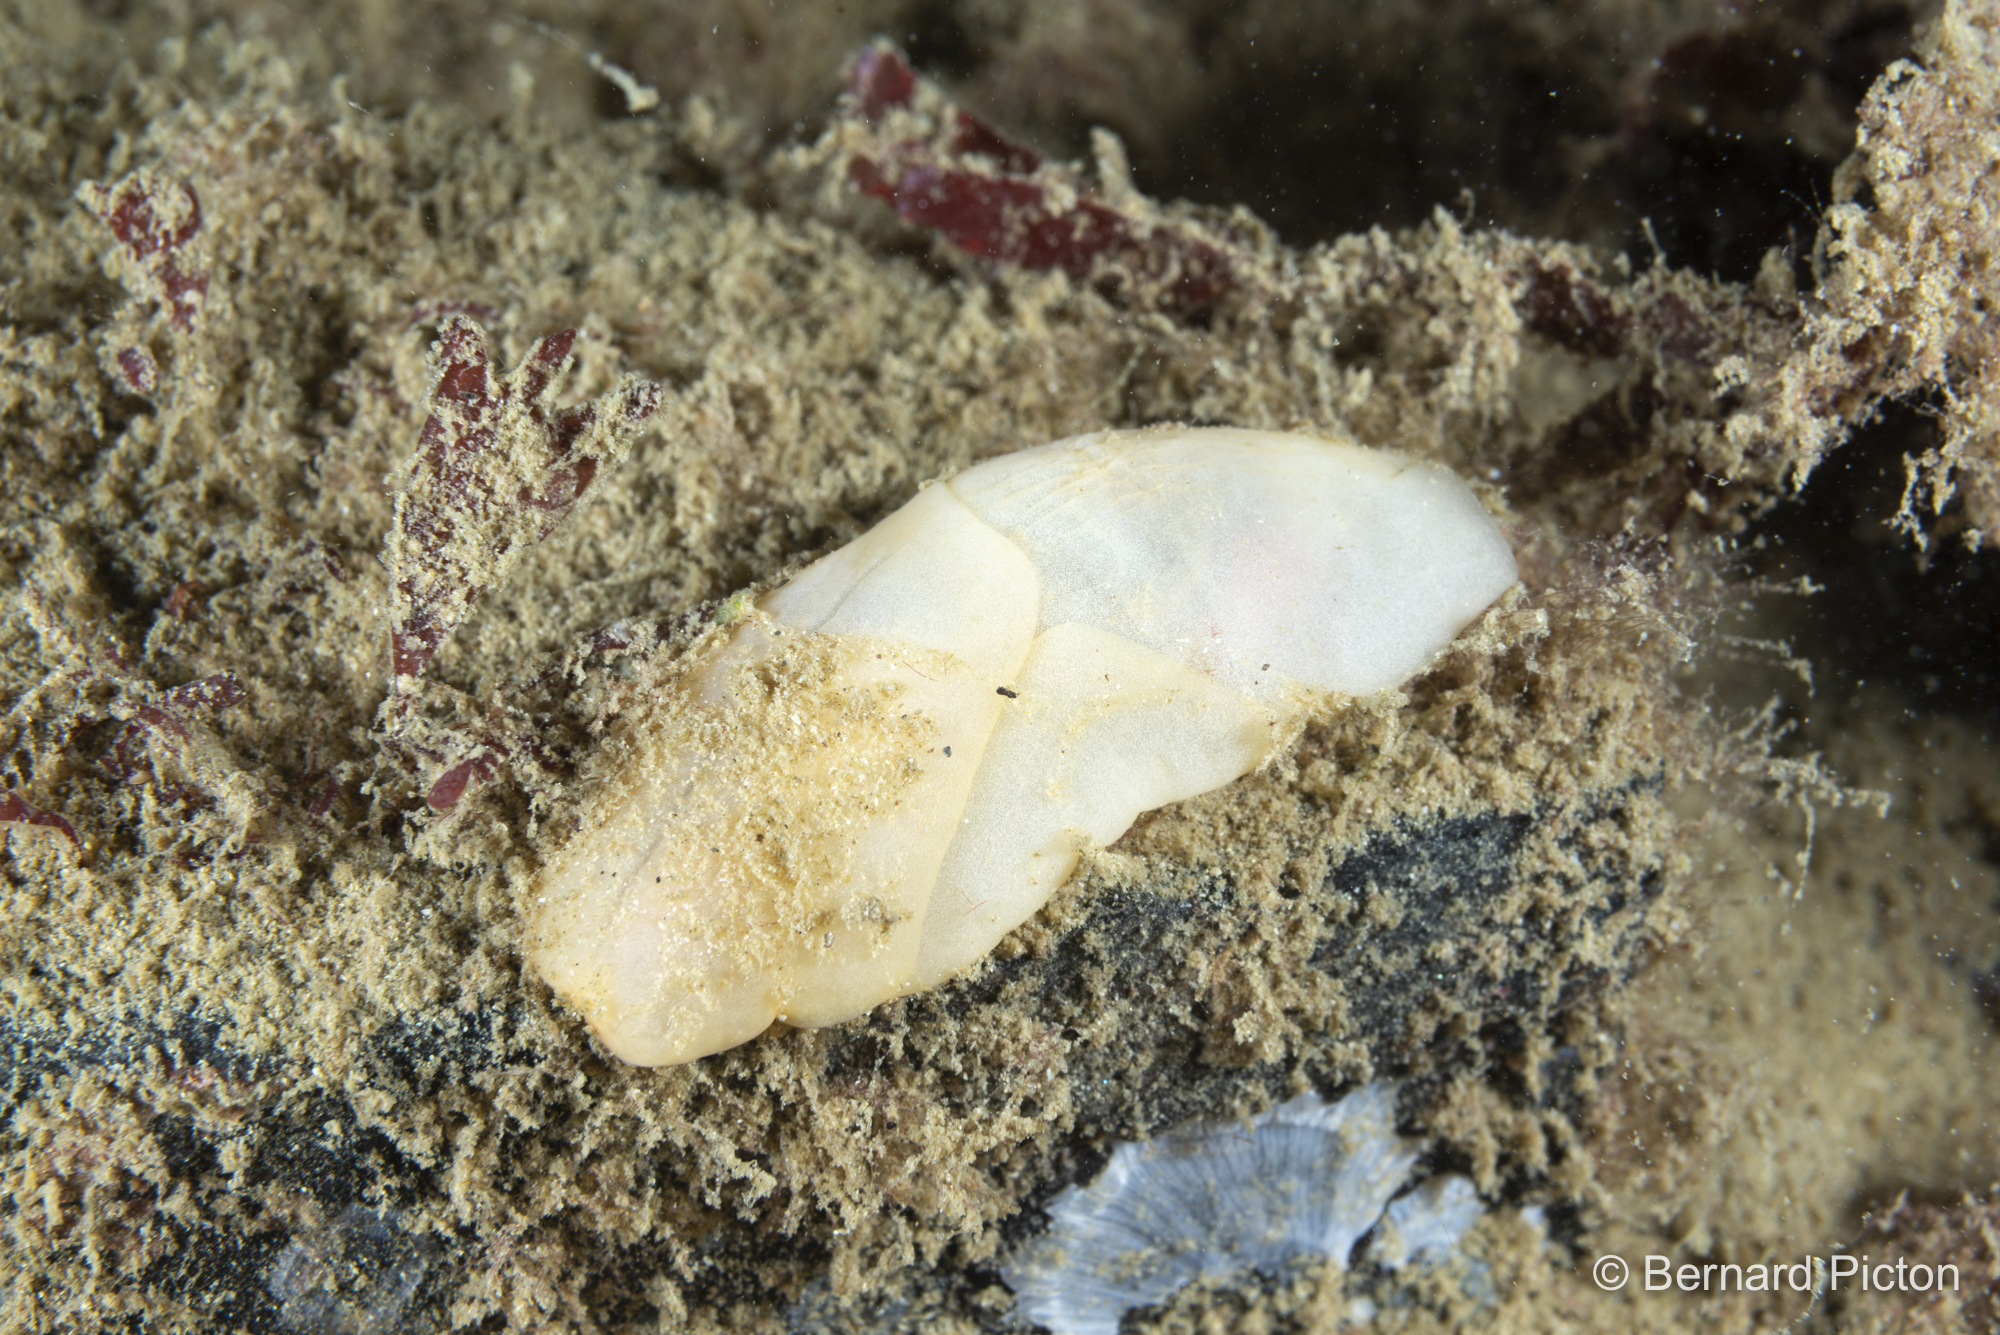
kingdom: Animalia
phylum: Mollusca
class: Gastropoda
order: Cephalaspidea
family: Philinidae
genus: Philine
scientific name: Philine quadripartita
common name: Lobe shell
